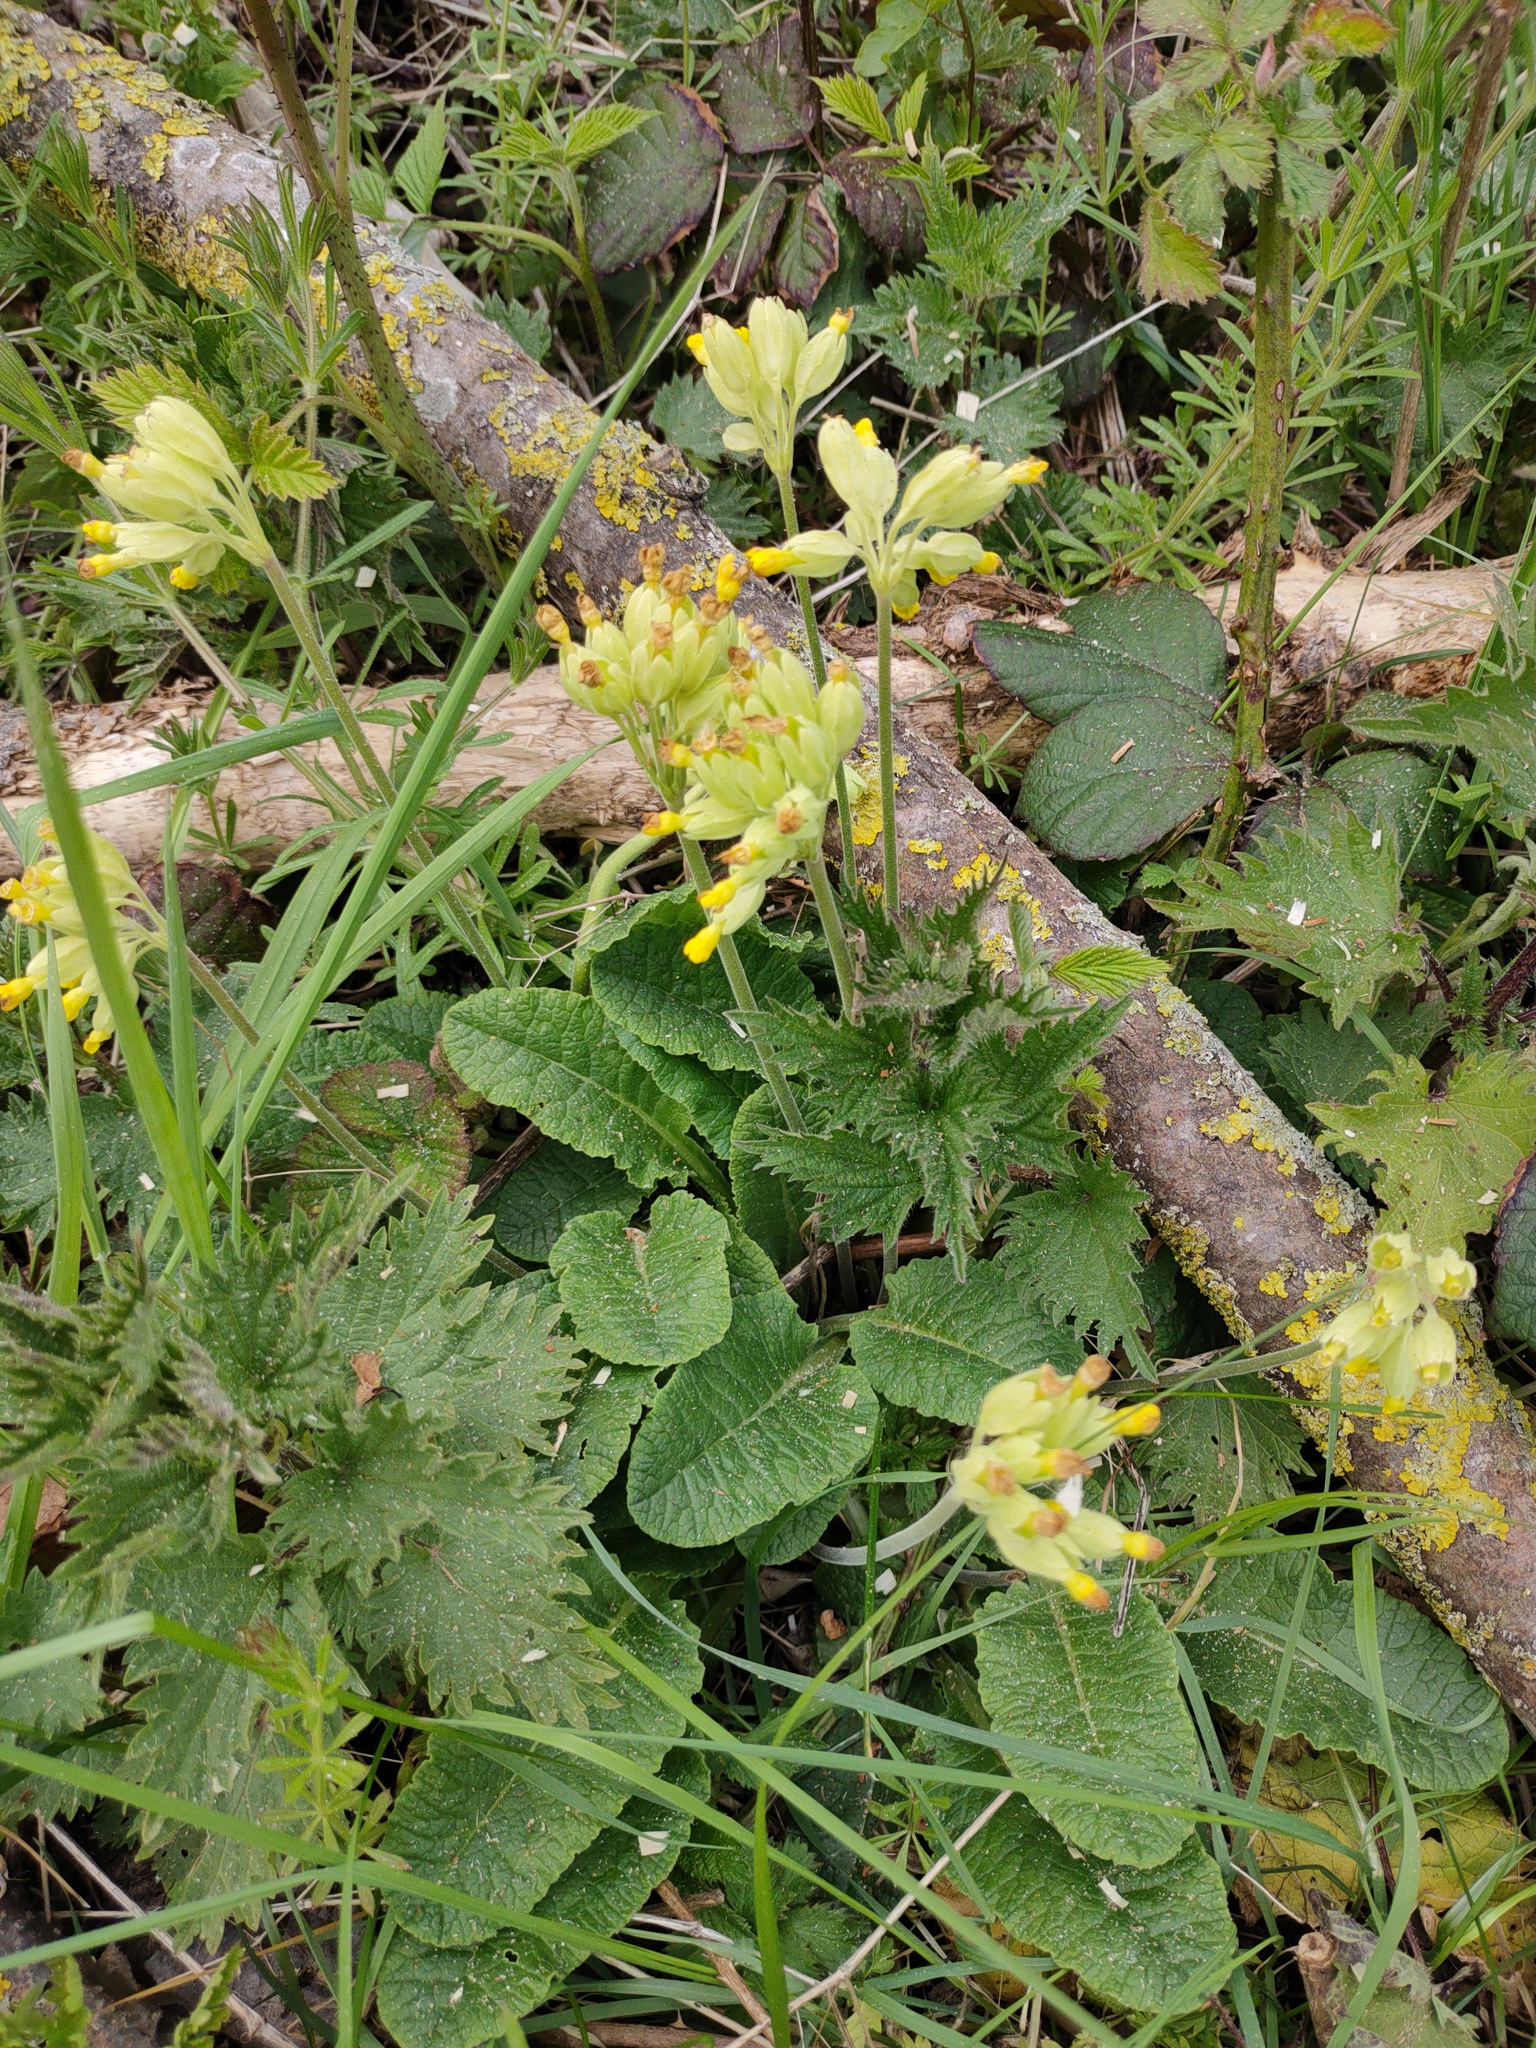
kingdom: Plantae
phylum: Tracheophyta
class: Magnoliopsida
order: Ericales
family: Primulaceae
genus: Primula
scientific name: Primula veris
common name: Cowslip
